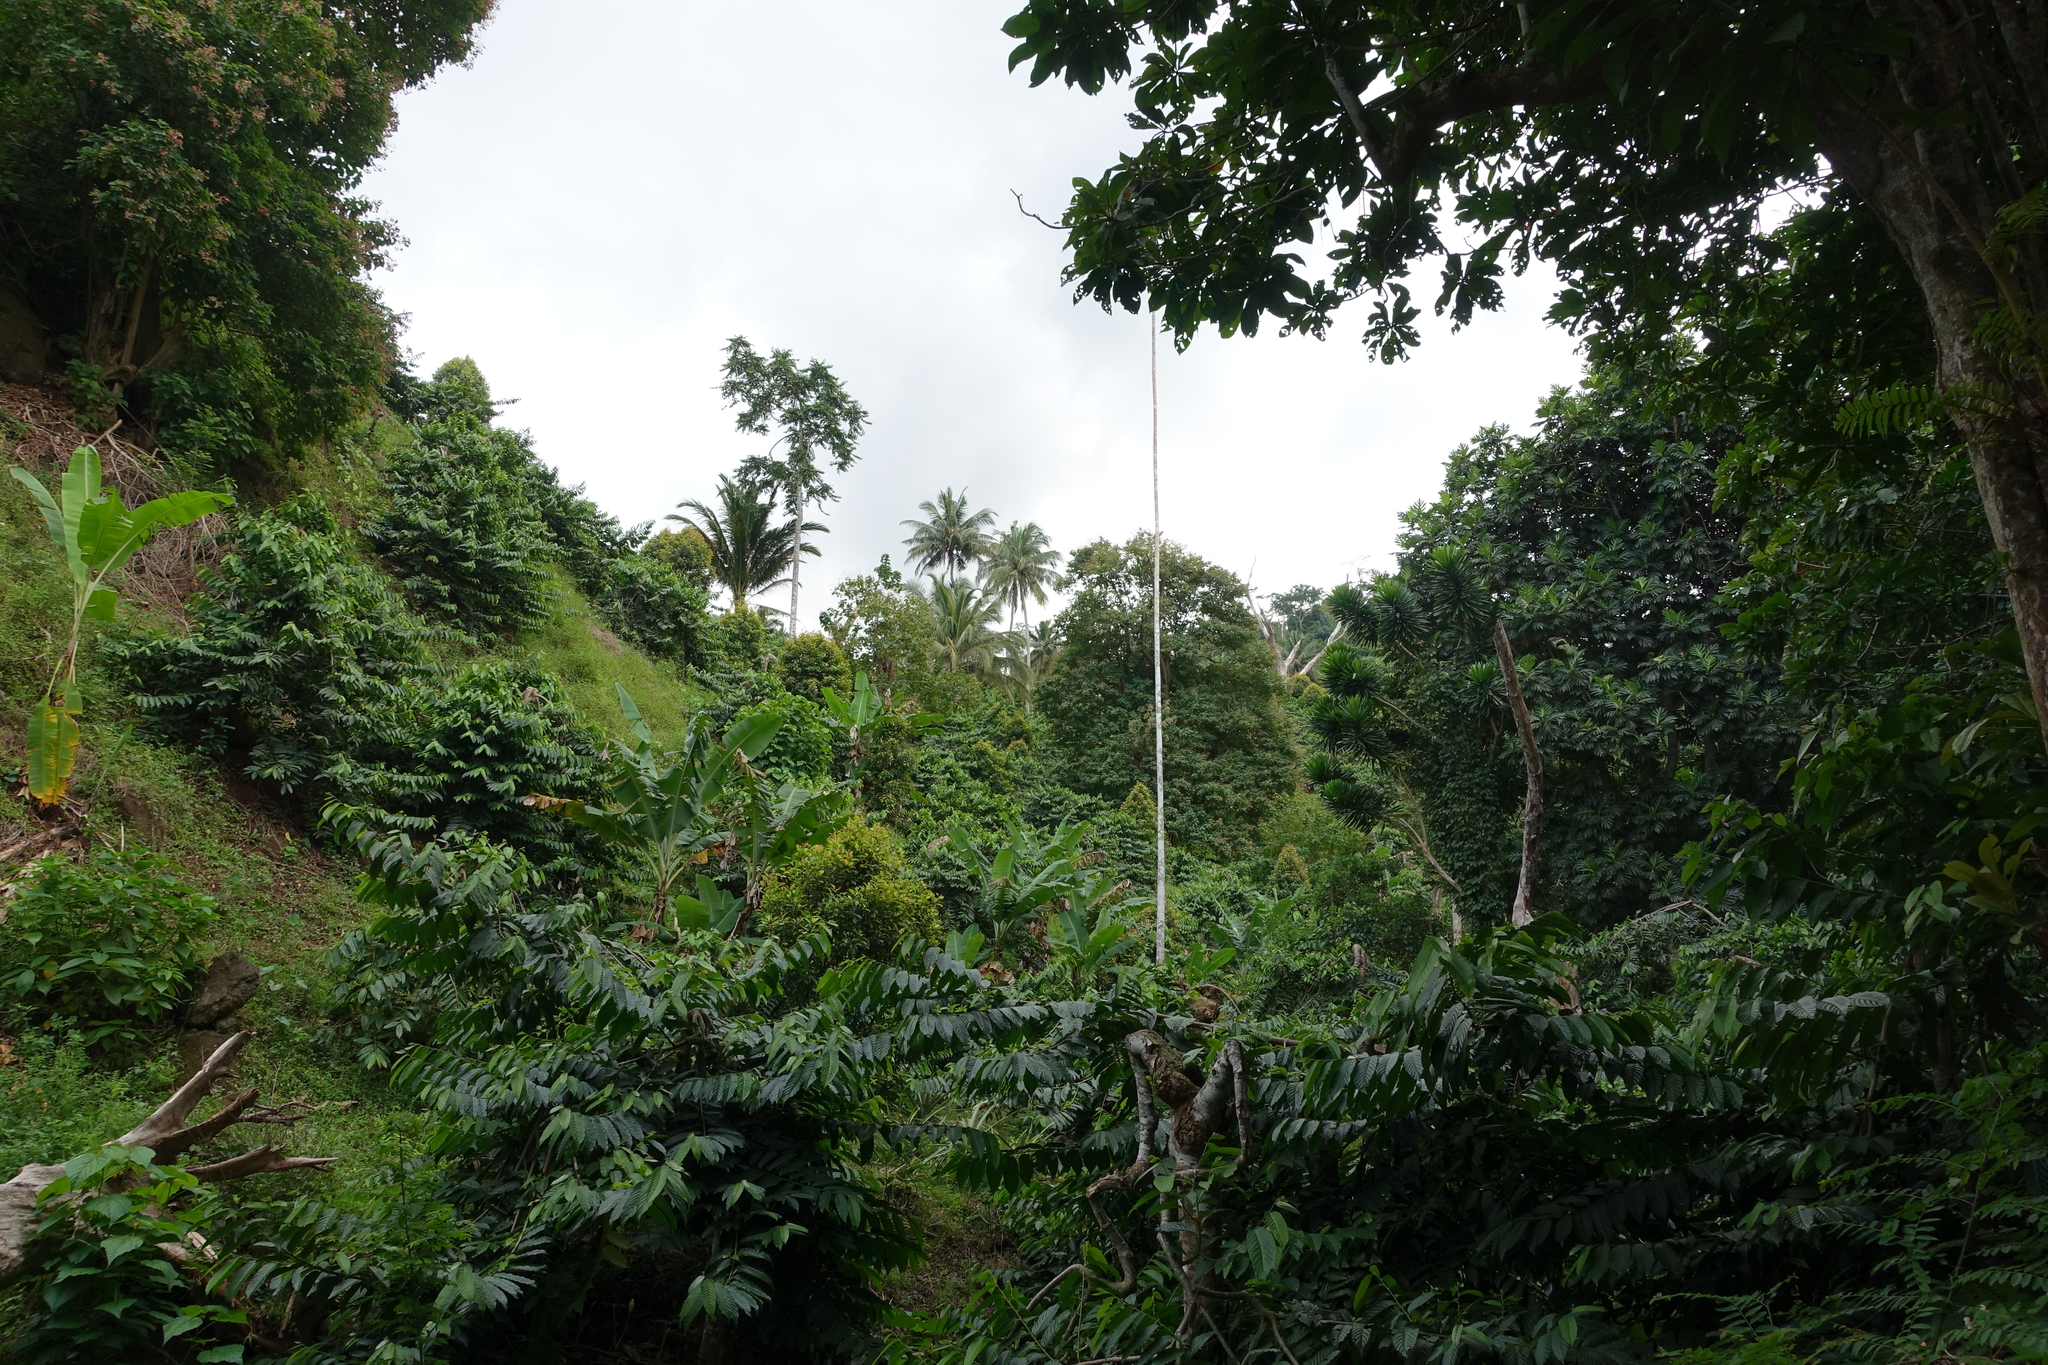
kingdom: Plantae
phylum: Tracheophyta
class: Liliopsida
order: Arecales
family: Arecaceae
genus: Areca
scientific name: Areca catechu
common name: Indian-nut
